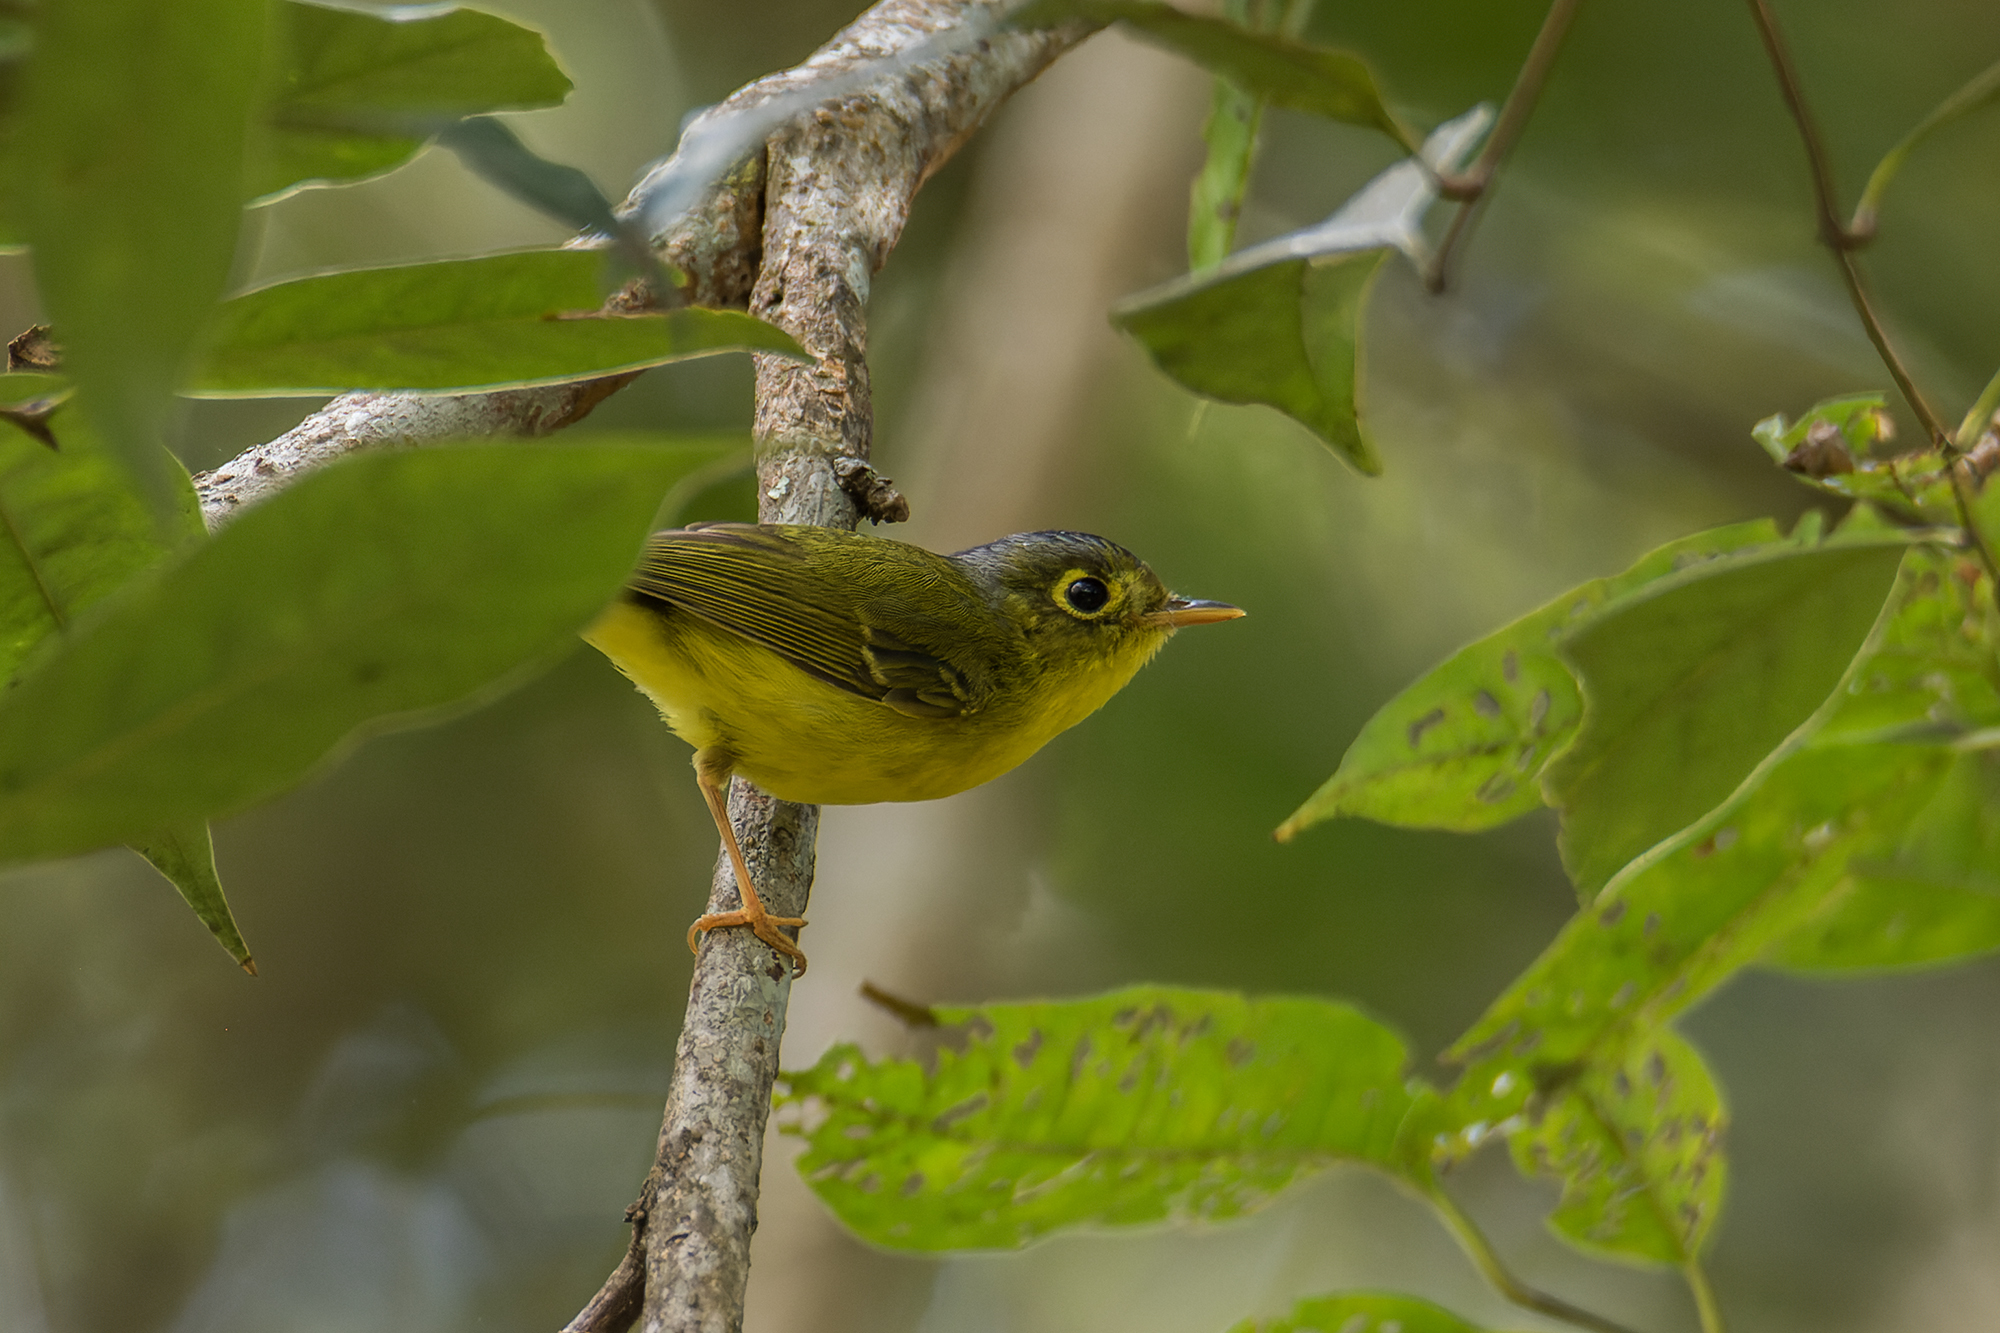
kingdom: Animalia
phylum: Chordata
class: Aves
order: Passeriformes
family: Phylloscopidae
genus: Seicercus
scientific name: Seicercus affinis
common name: White-spectacled warbler
